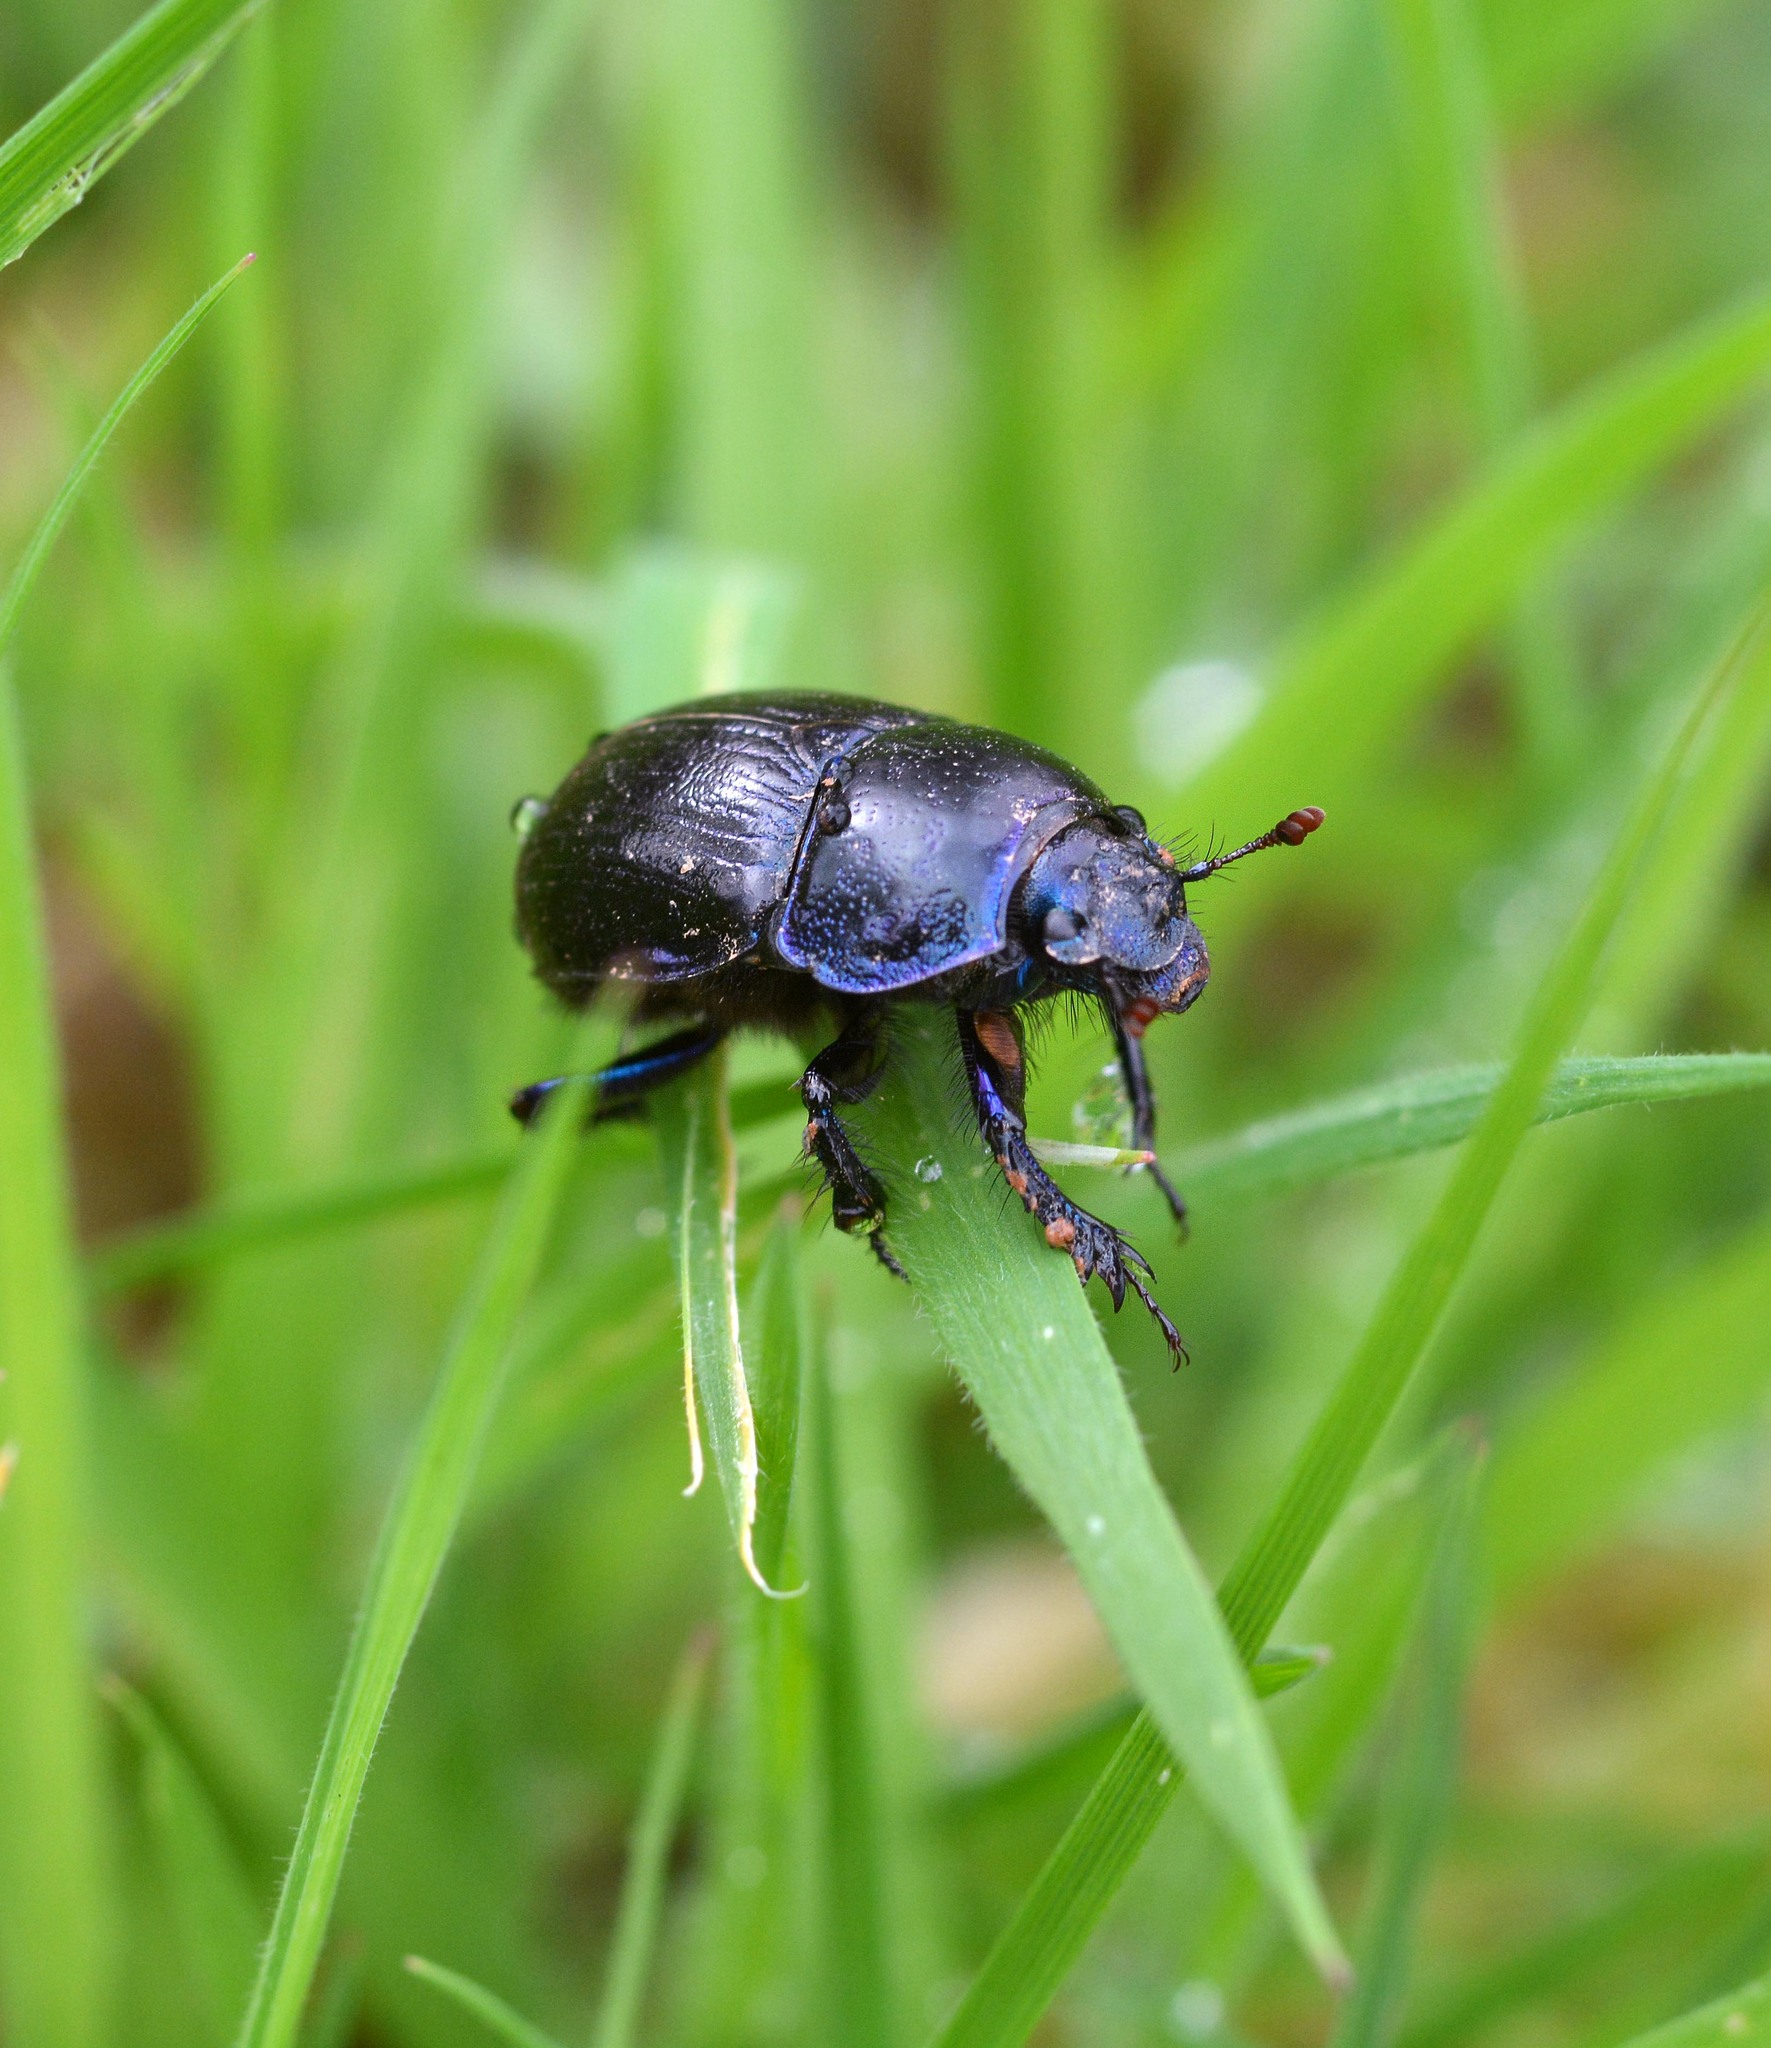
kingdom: Animalia
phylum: Arthropoda
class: Insecta
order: Coleoptera
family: Geotrupidae
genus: Anoplotrupes
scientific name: Anoplotrupes stercorosus
